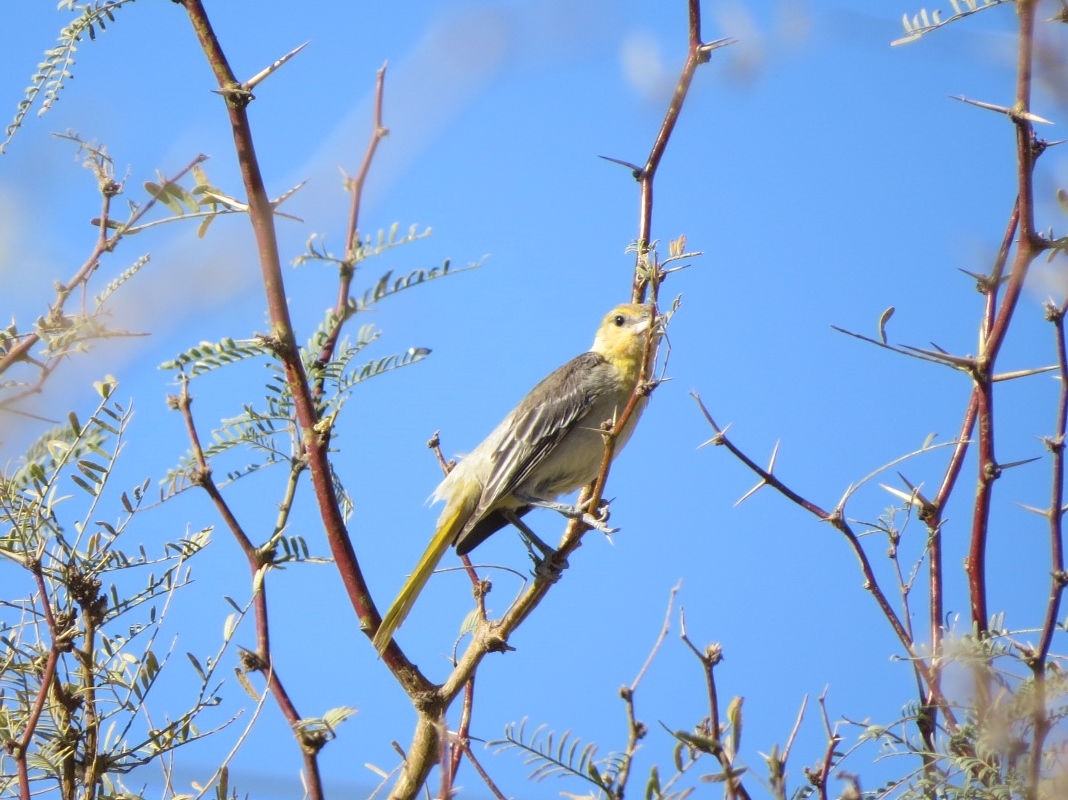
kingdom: Animalia
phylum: Chordata
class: Aves
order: Passeriformes
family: Icteridae
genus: Icterus
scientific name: Icterus bullockii
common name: Bullock's oriole
